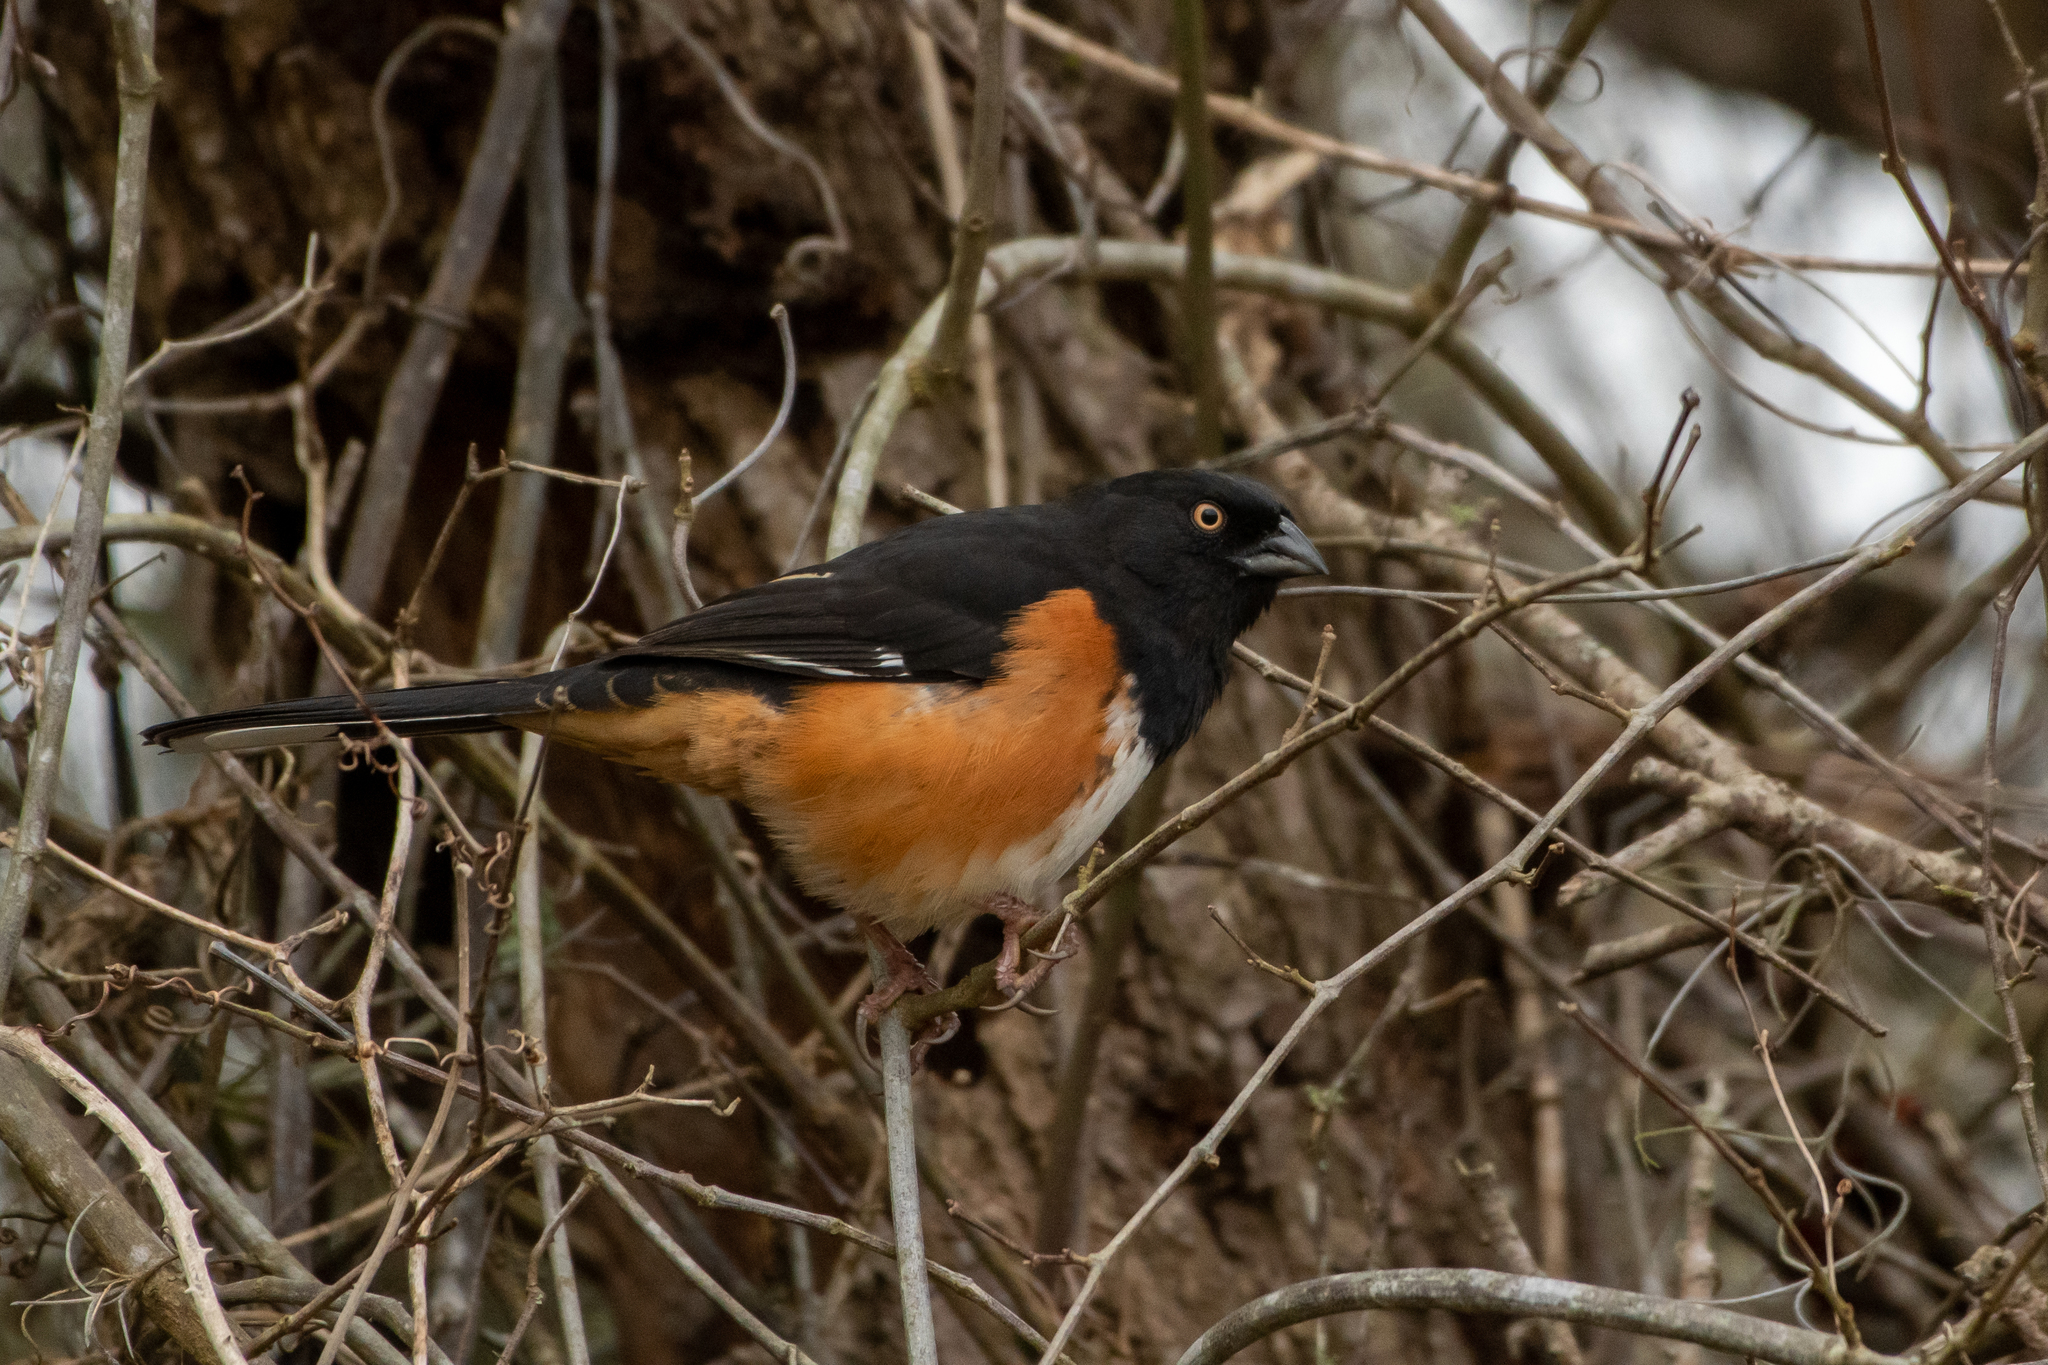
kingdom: Animalia
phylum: Chordata
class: Aves
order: Passeriformes
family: Passerellidae
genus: Pipilo
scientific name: Pipilo erythrophthalmus
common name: Eastern towhee
